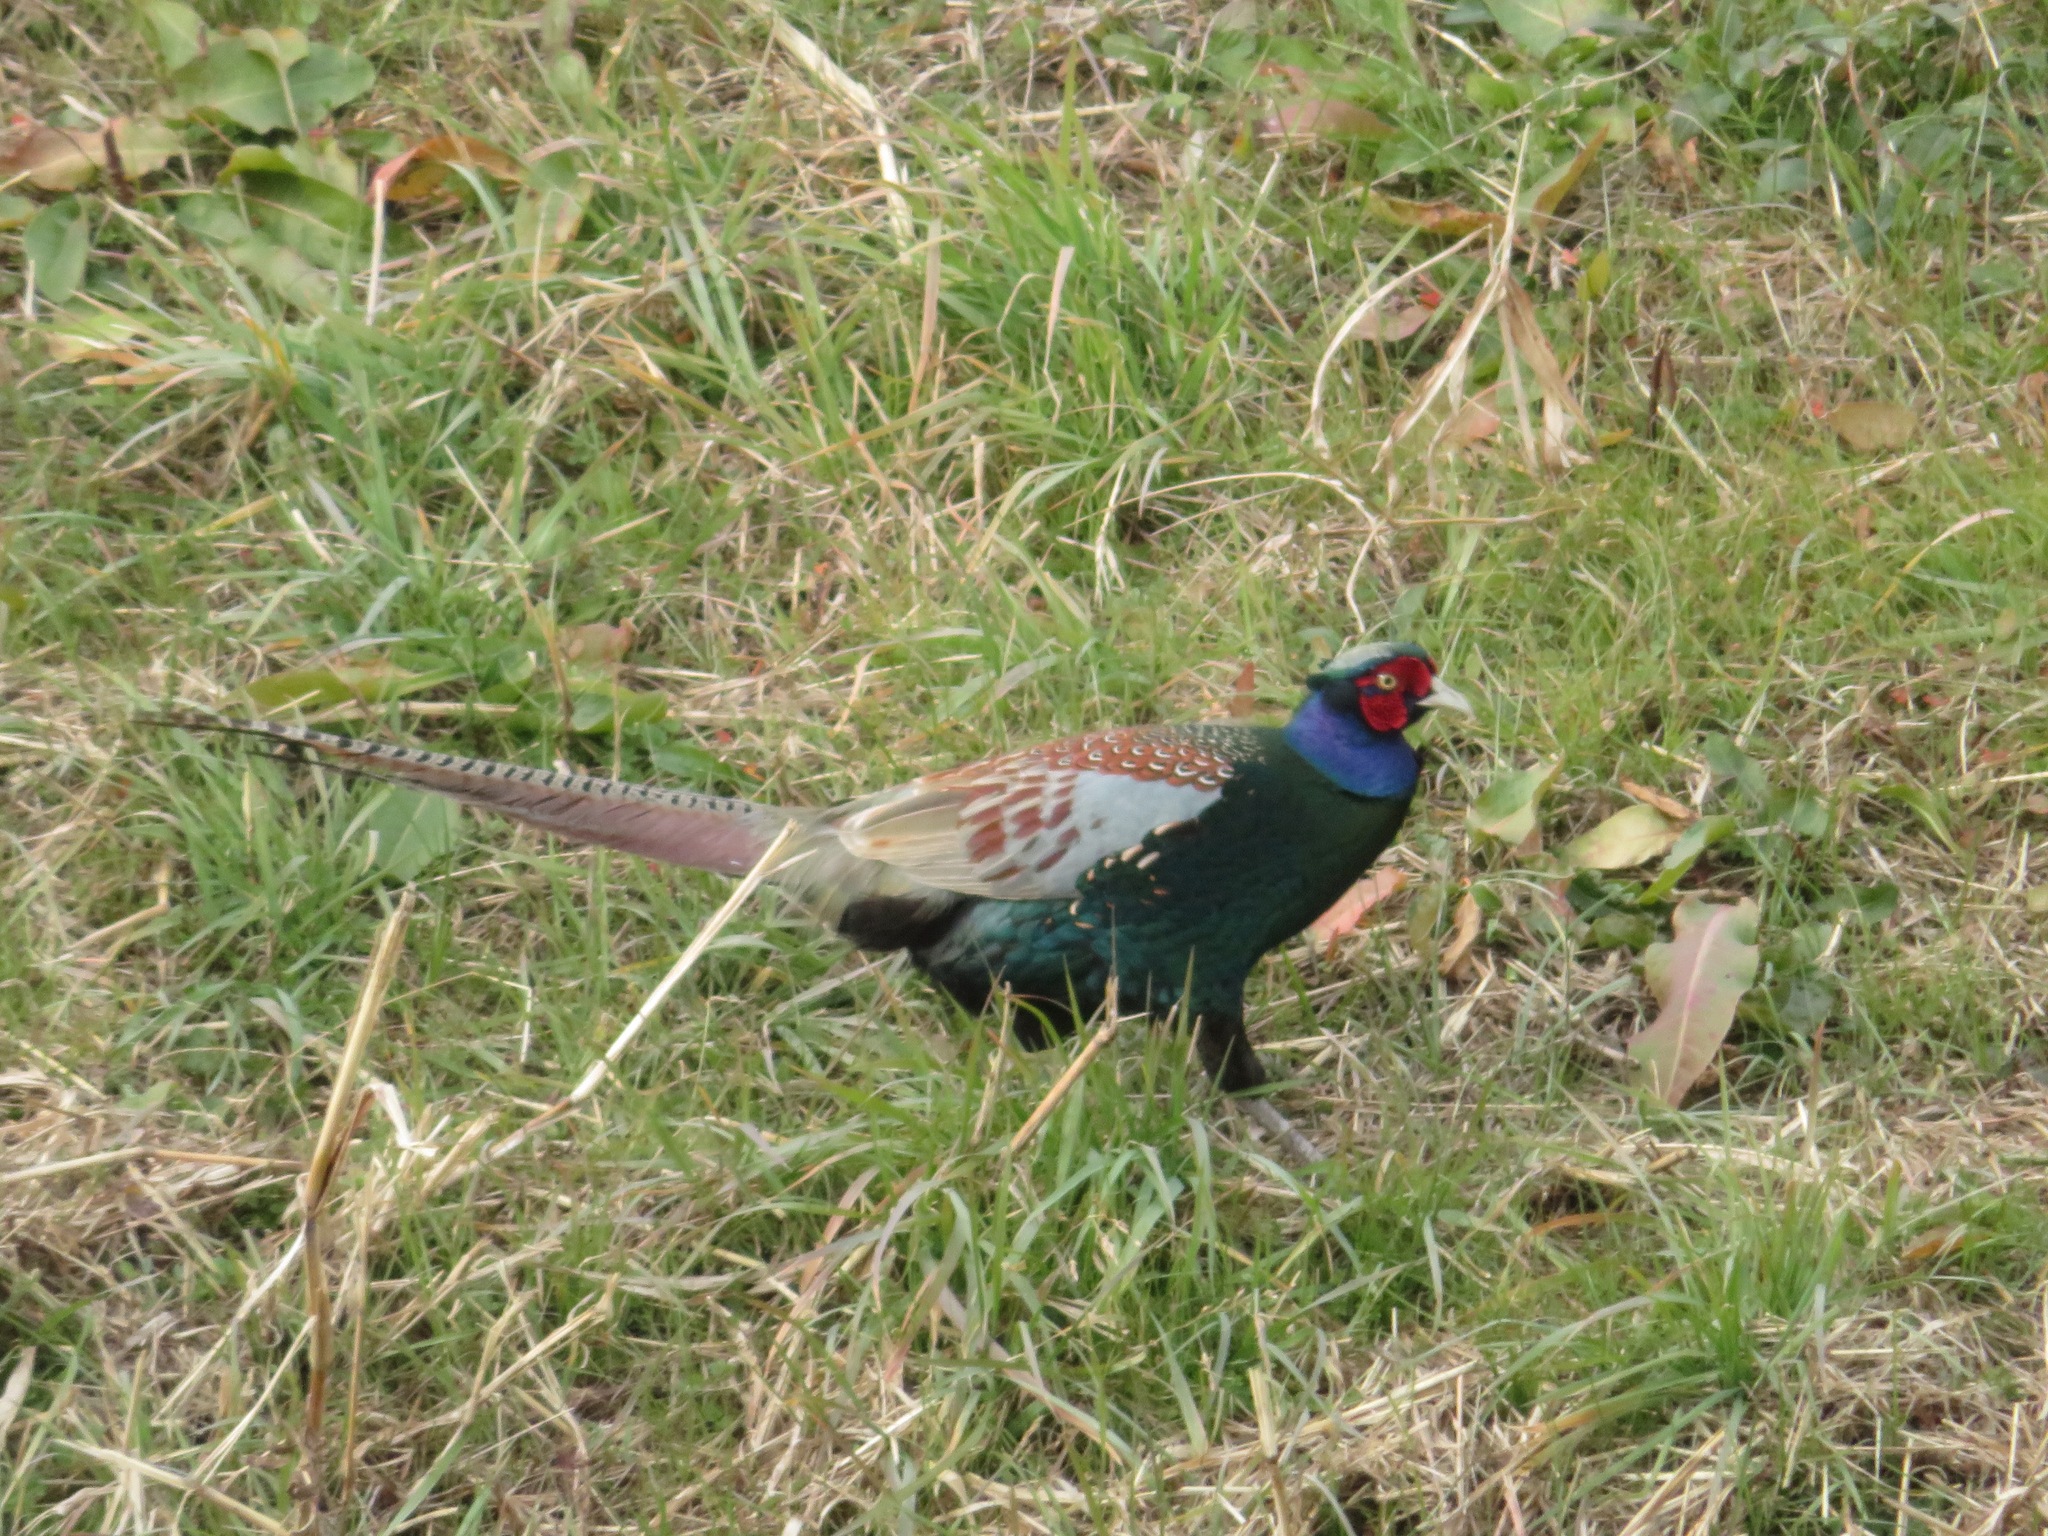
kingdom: Animalia
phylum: Chordata
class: Aves
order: Galliformes
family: Phasianidae
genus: Phasianus
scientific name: Phasianus versicolor
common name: Green pheasant
